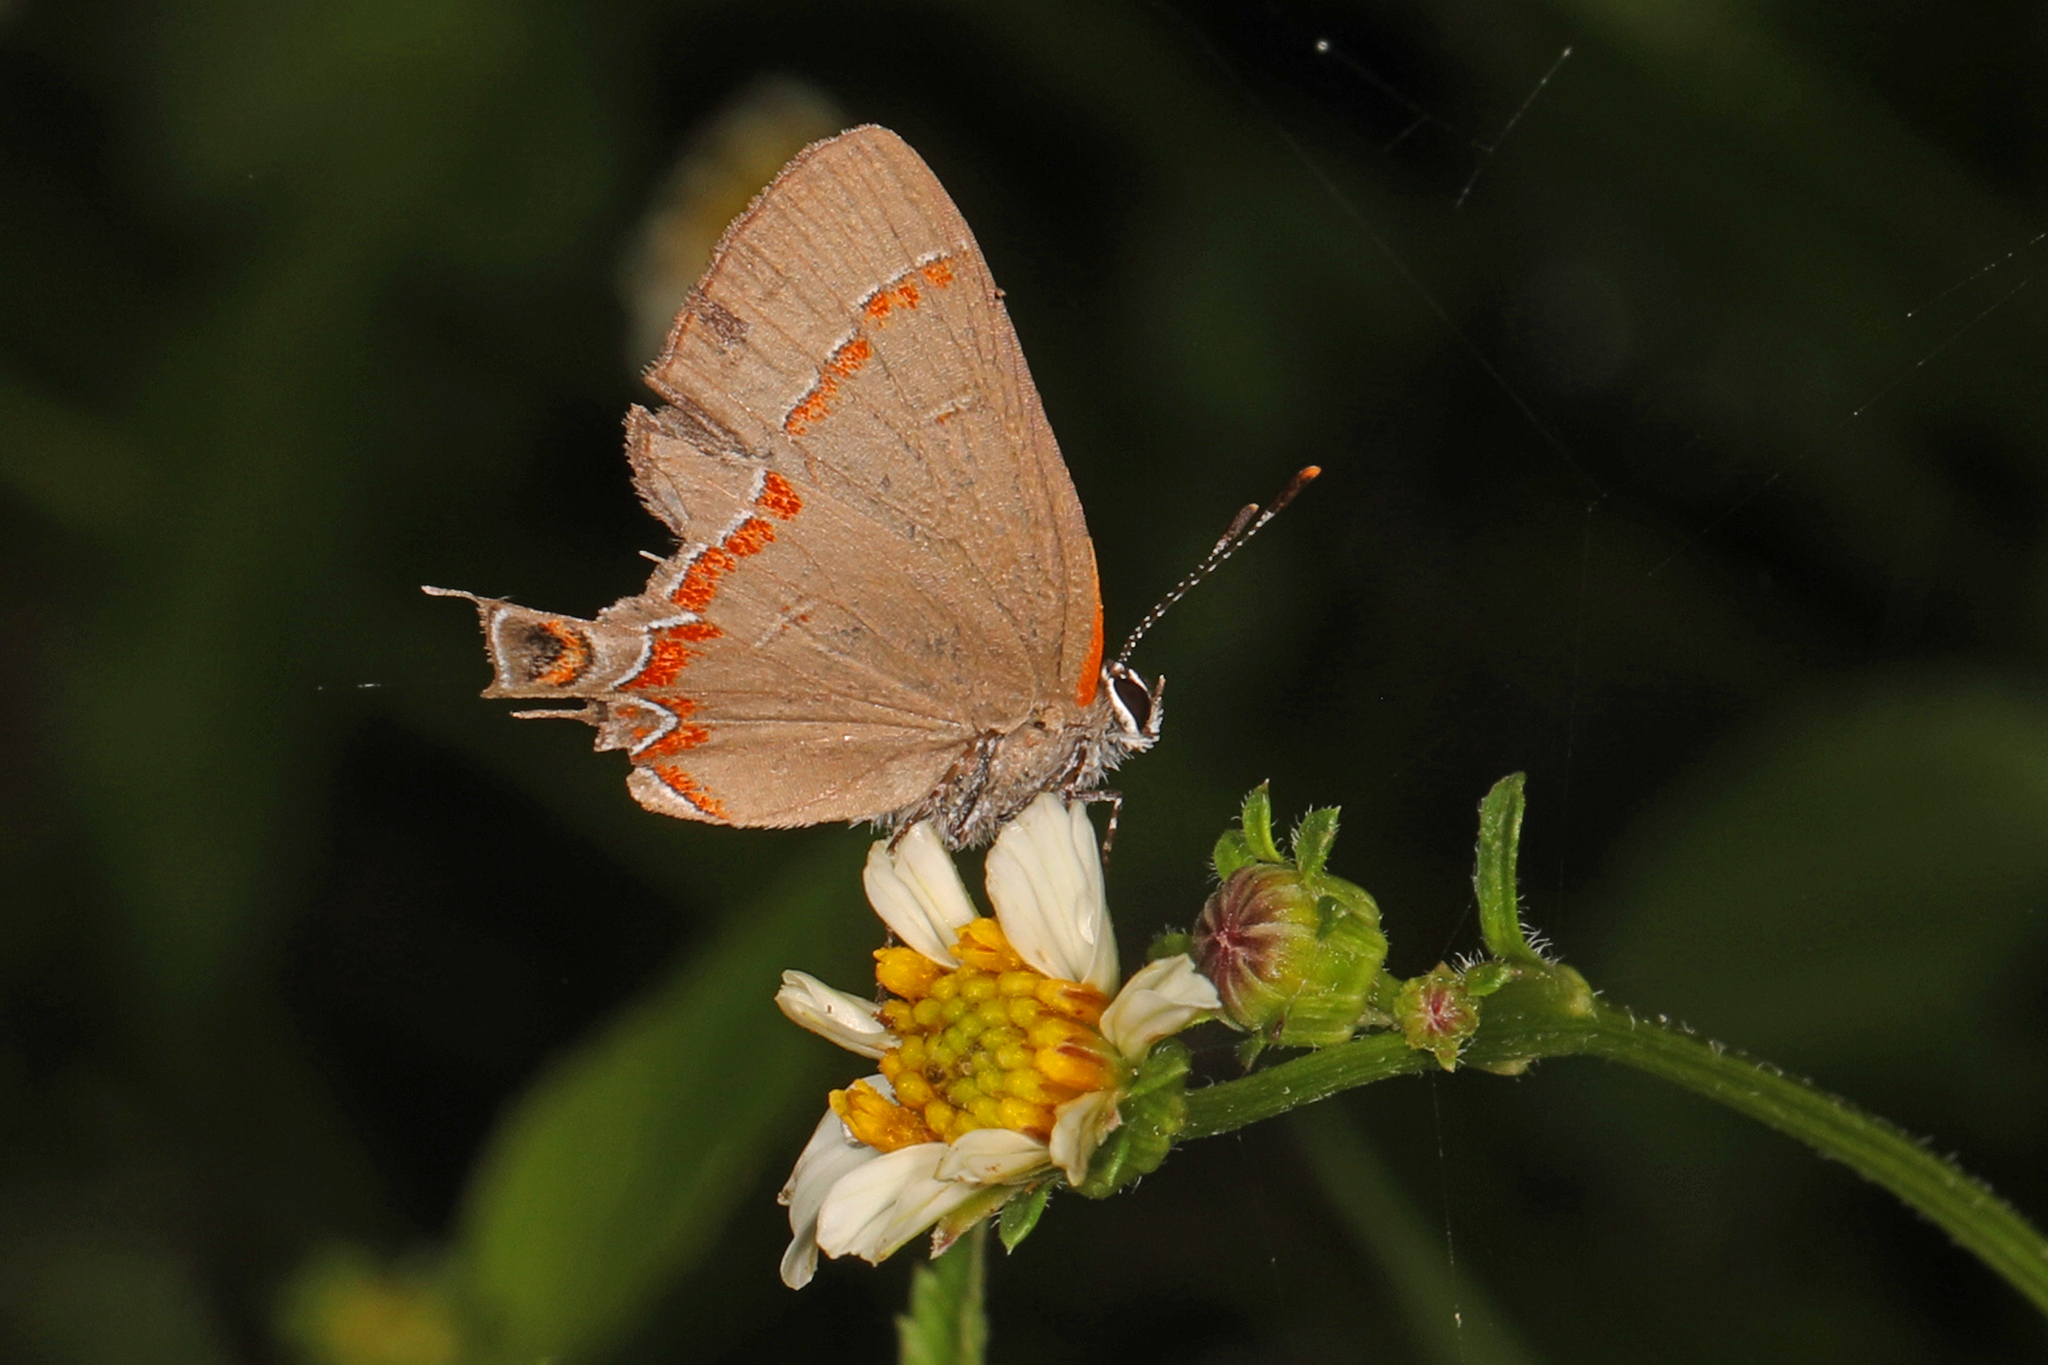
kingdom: Animalia
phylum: Arthropoda
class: Insecta
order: Lepidoptera
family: Lycaenidae
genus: Calycopis
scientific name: Calycopis cecrops
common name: Red-banded hairstreak
